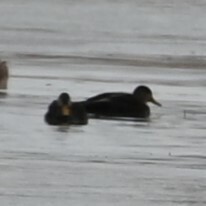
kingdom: Animalia
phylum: Chordata
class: Aves
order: Anseriformes
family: Anatidae
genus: Anas
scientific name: Anas rubripes
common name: American black duck
